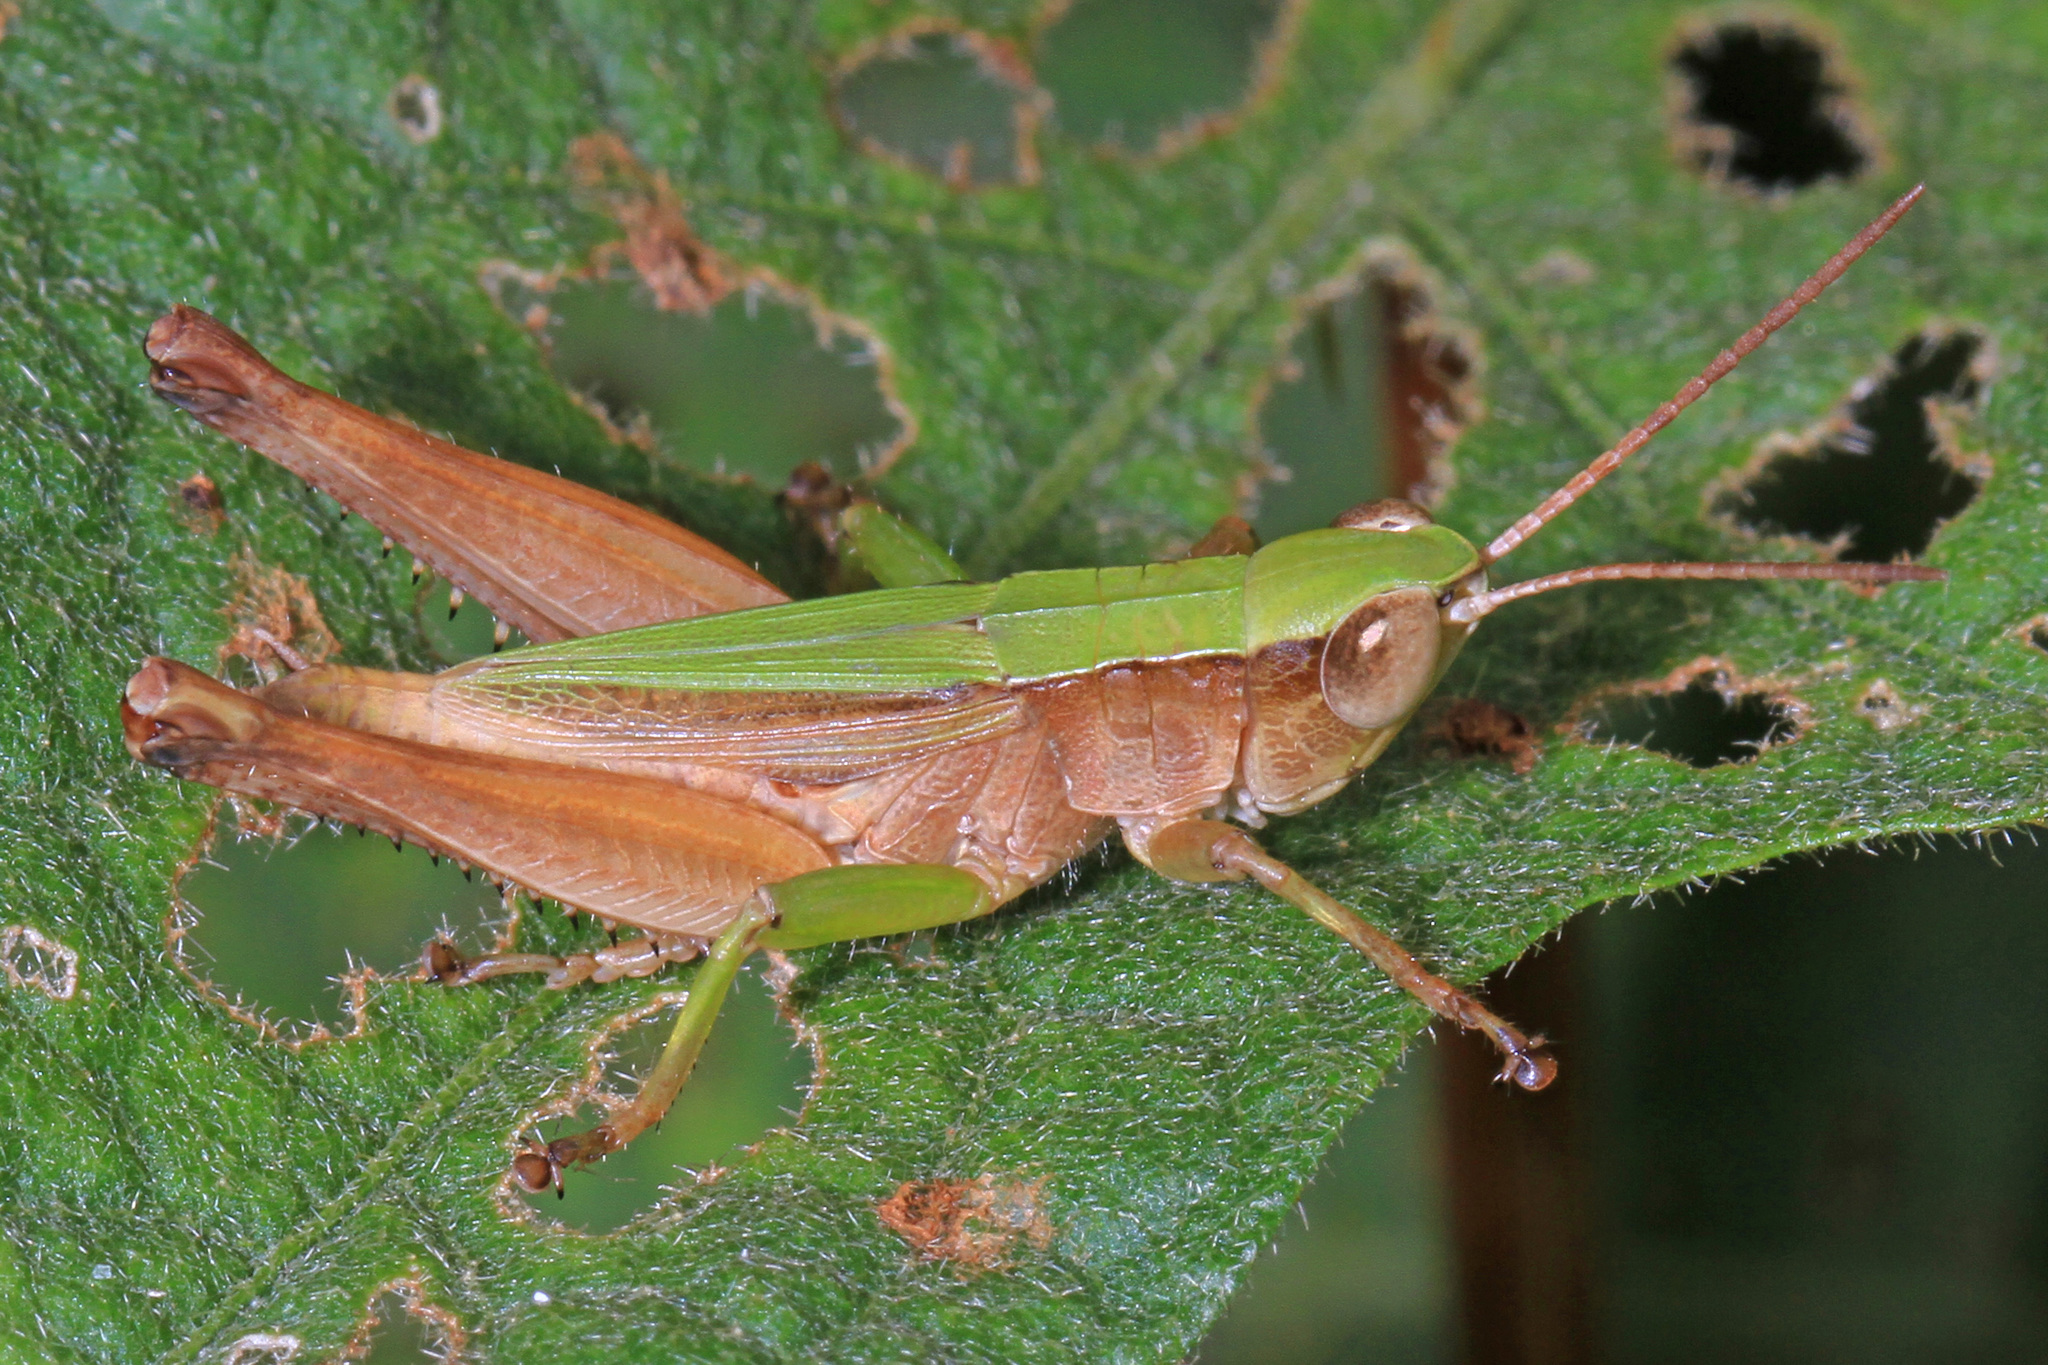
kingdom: Animalia
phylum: Arthropoda
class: Insecta
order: Orthoptera
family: Acrididae
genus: Dichromorpha
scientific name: Dichromorpha viridis
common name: Short-winged green grasshopper
